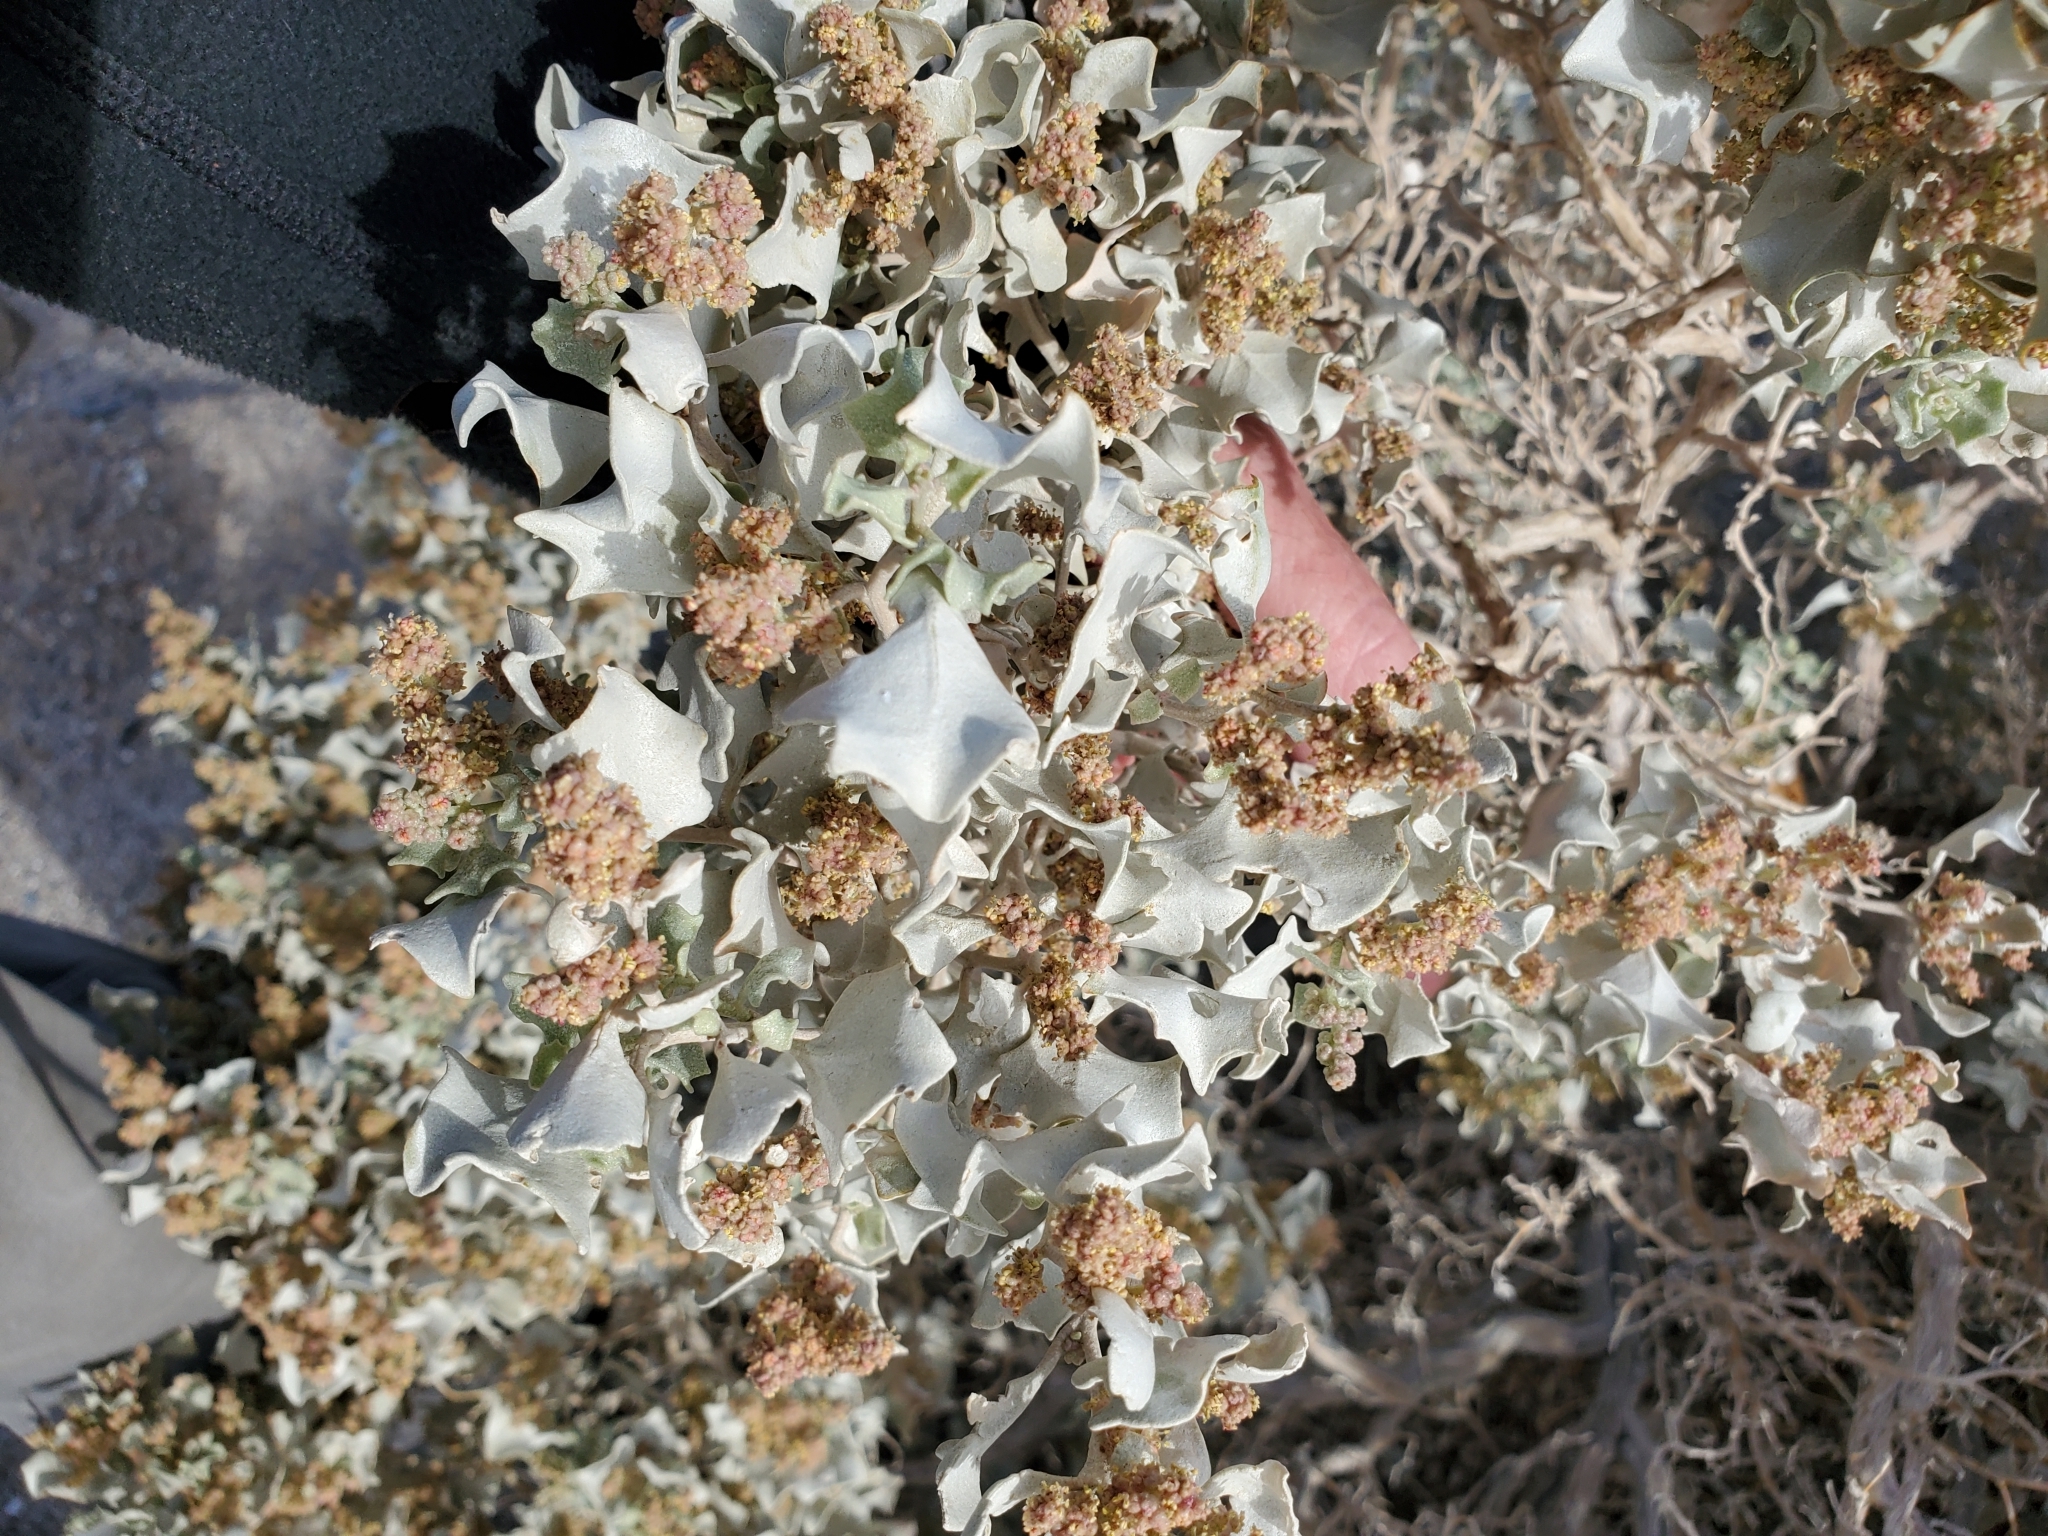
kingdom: Plantae
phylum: Tracheophyta
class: Magnoliopsida
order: Caryophyllales
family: Amaranthaceae
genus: Atriplex
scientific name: Atriplex hymenelytra
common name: Desert-holly
